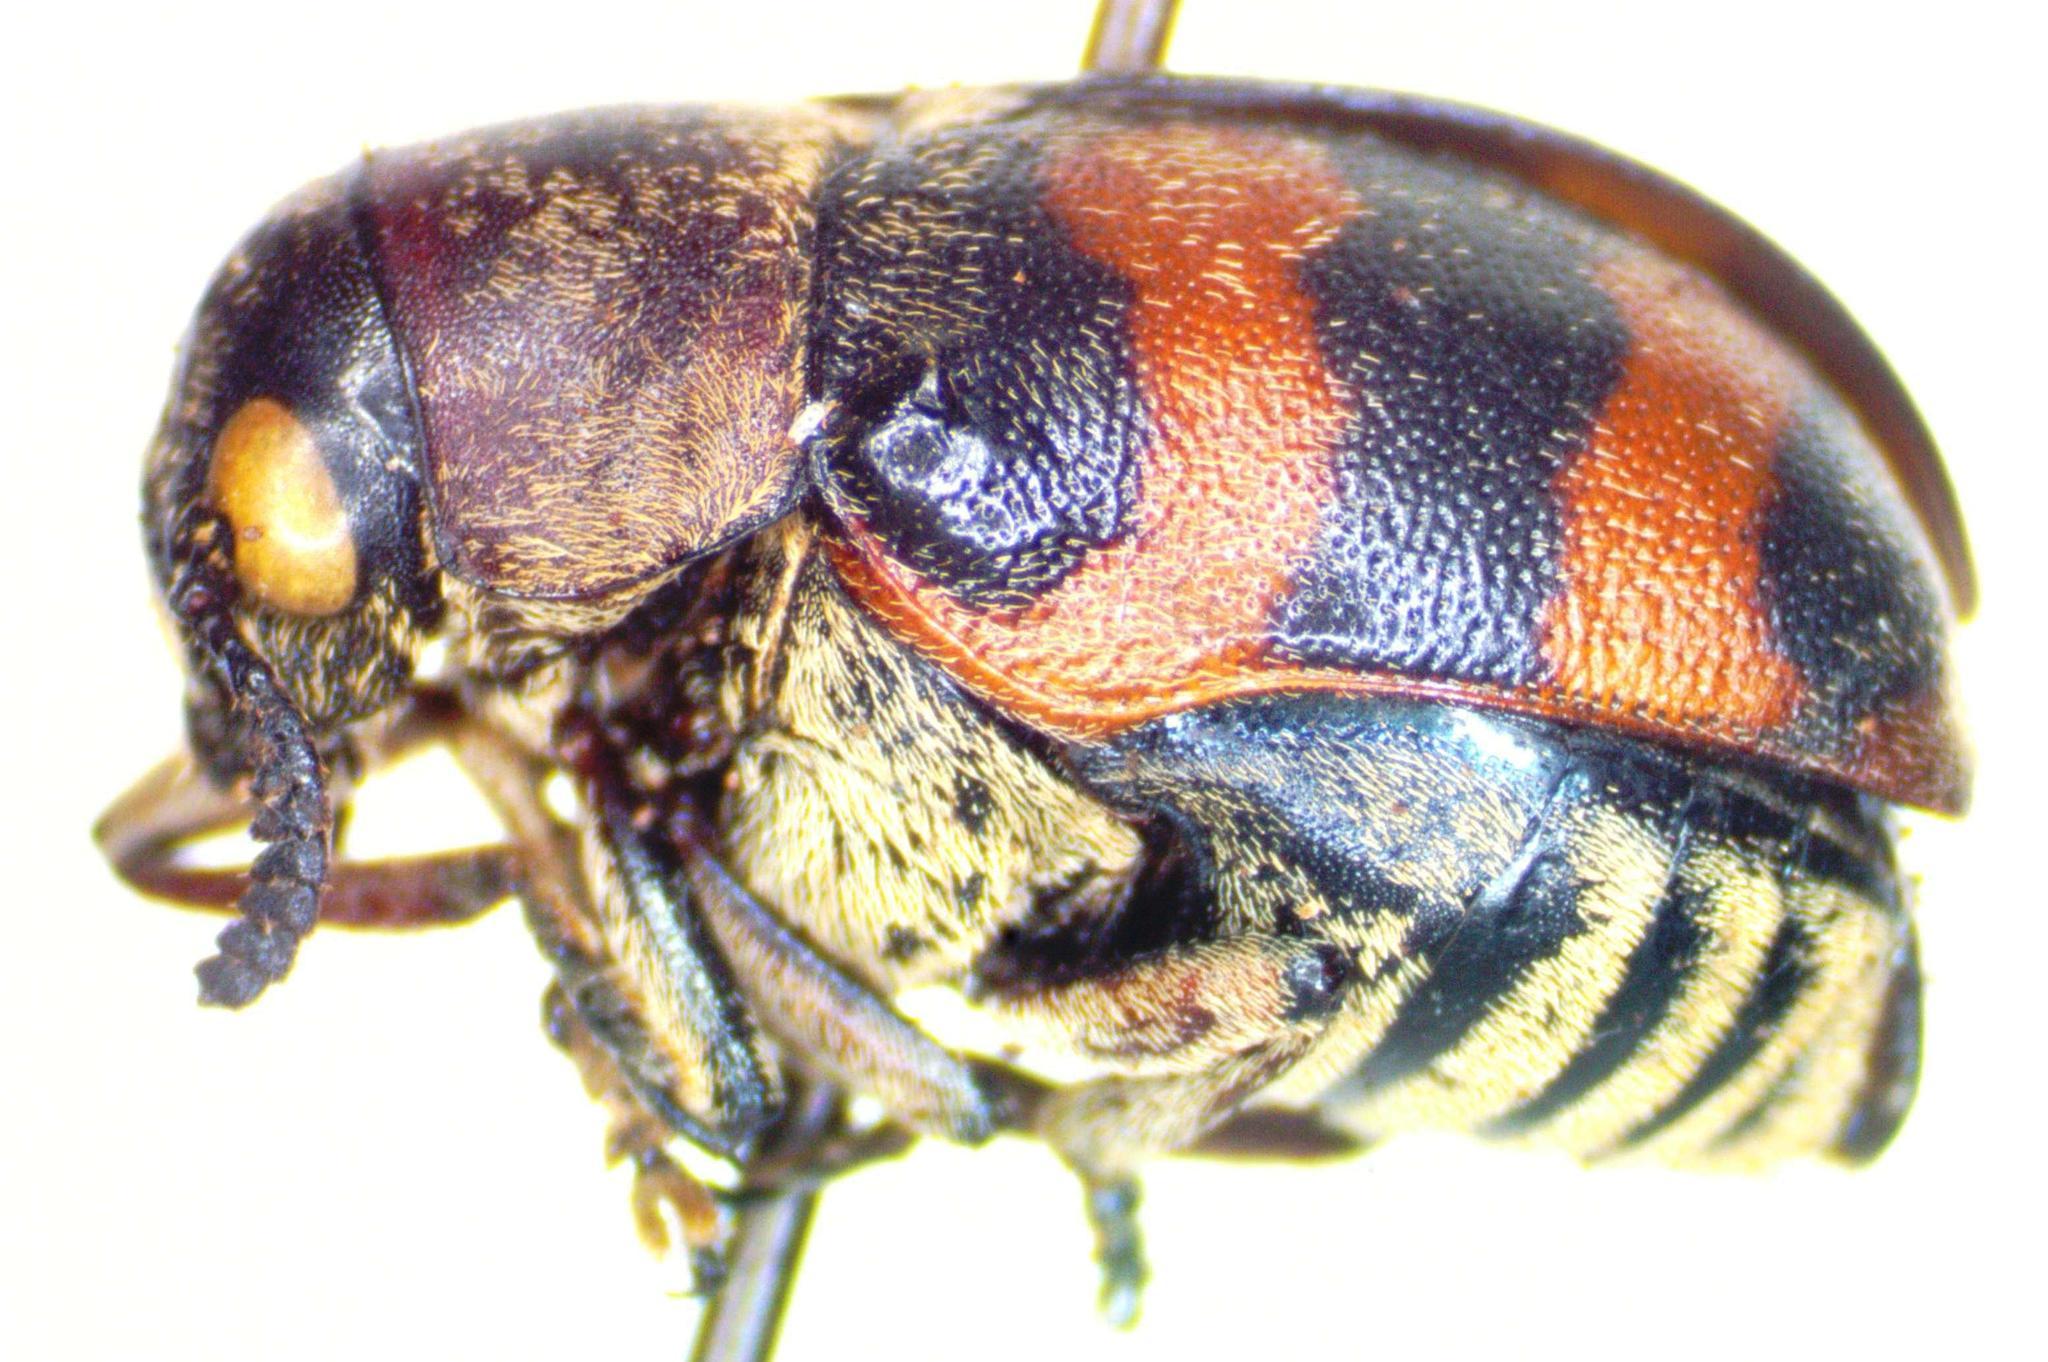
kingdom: Animalia
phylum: Arthropoda
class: Insecta
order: Coleoptera
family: Chrysomelidae
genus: Megalostomis
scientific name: Megalostomis gazella
